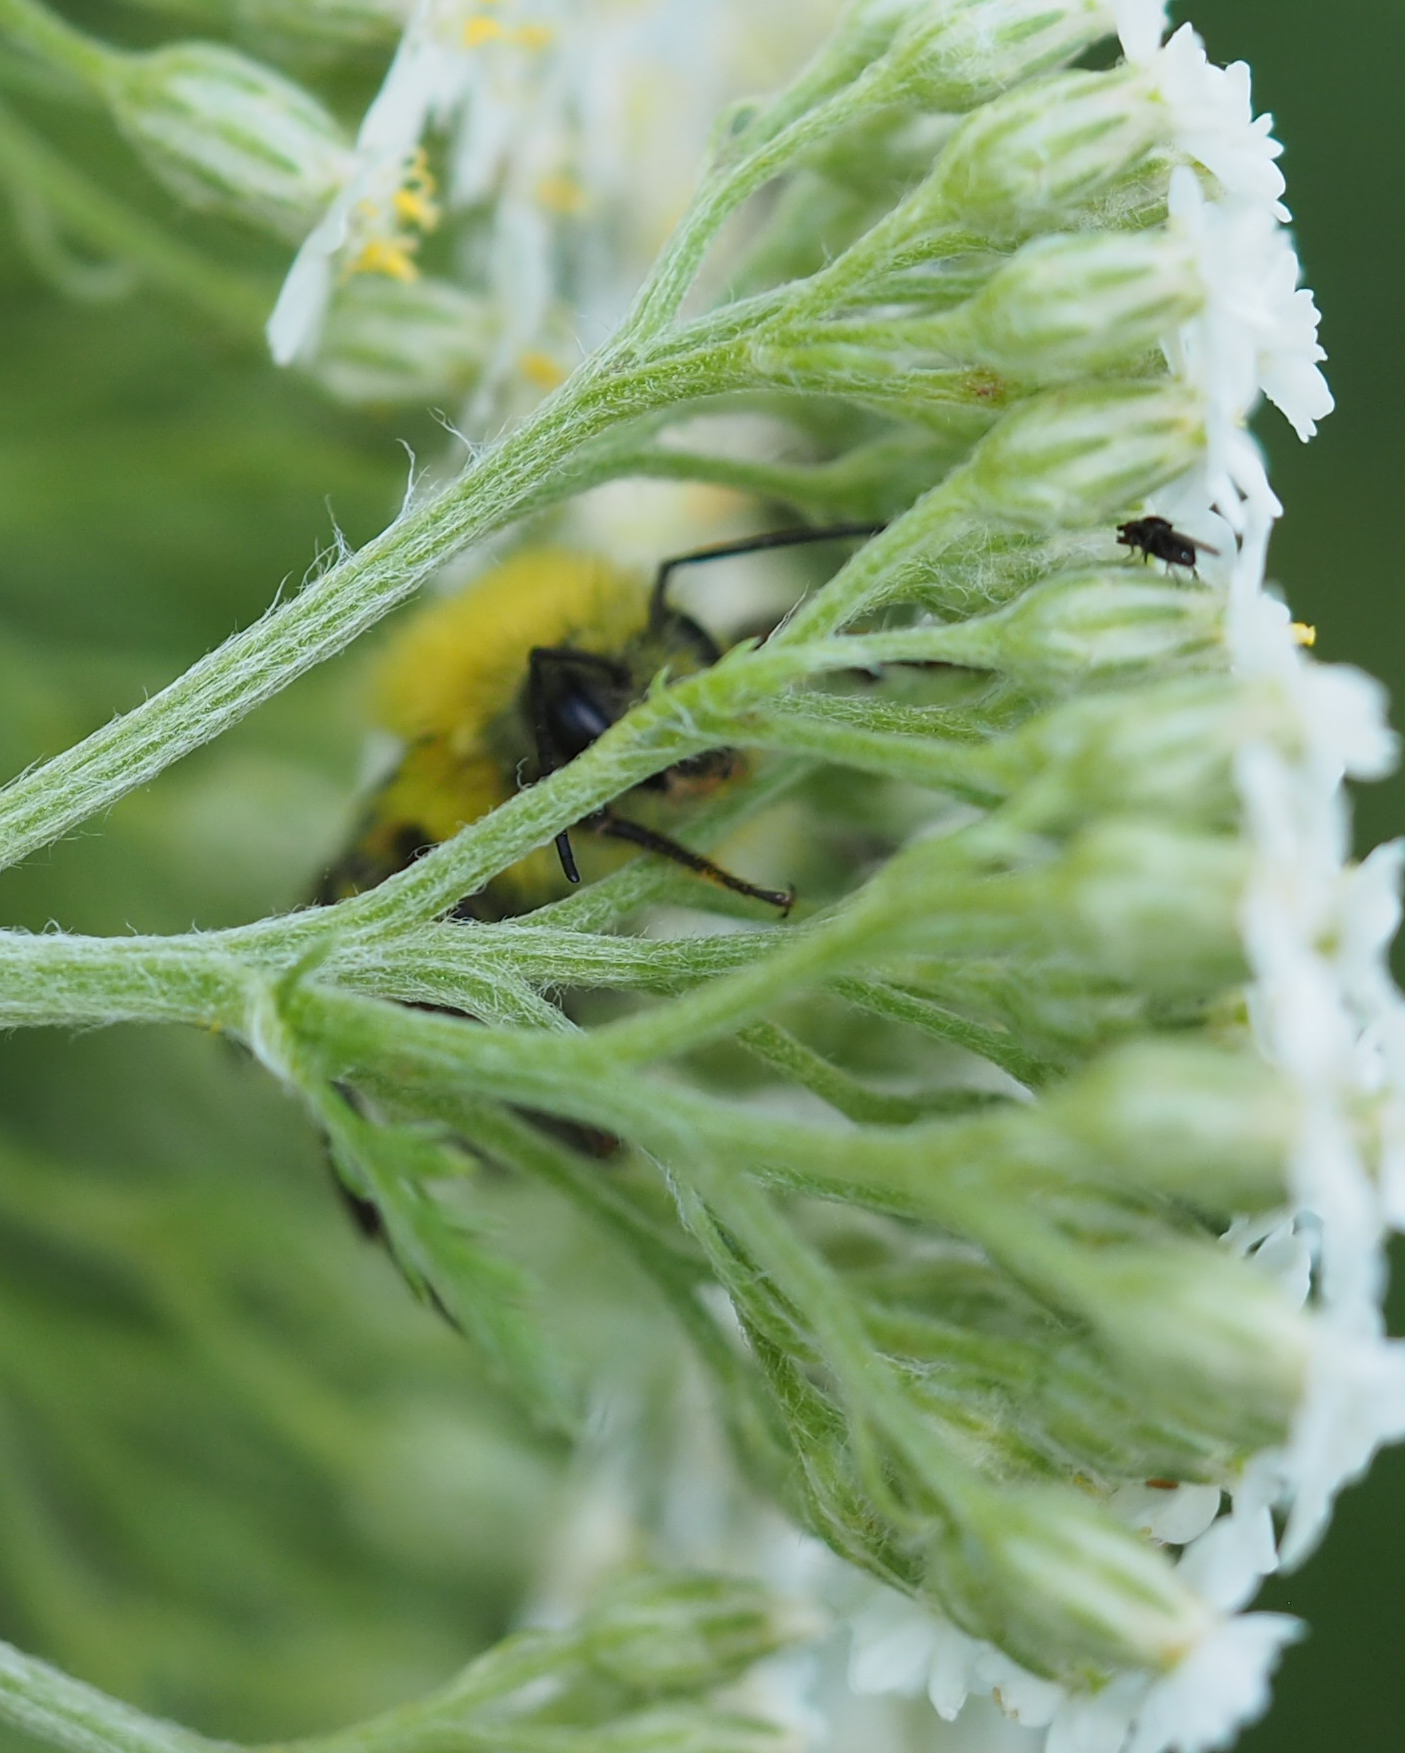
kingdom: Animalia
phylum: Arthropoda
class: Insecta
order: Hymenoptera
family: Apidae
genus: Bombus
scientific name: Bombus perplexus
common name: Confusing bumble bee
